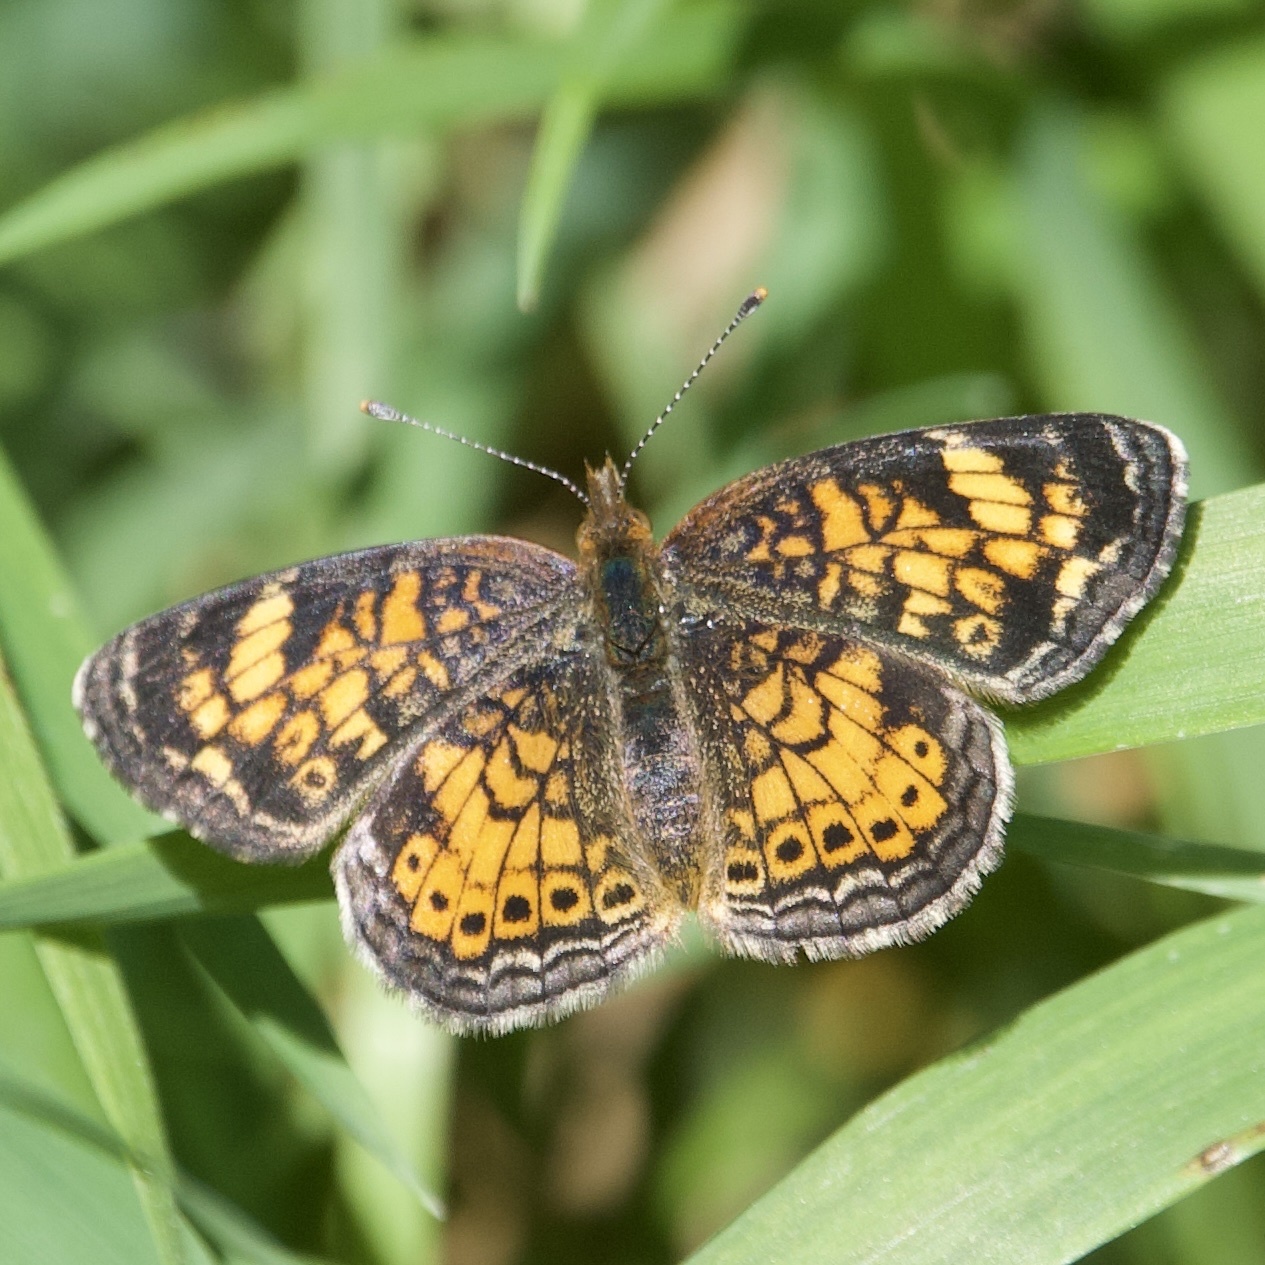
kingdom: Animalia
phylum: Arthropoda
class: Insecta
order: Lepidoptera
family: Nymphalidae
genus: Phyciodes
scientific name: Phyciodes tharos
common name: Pearl crescent
